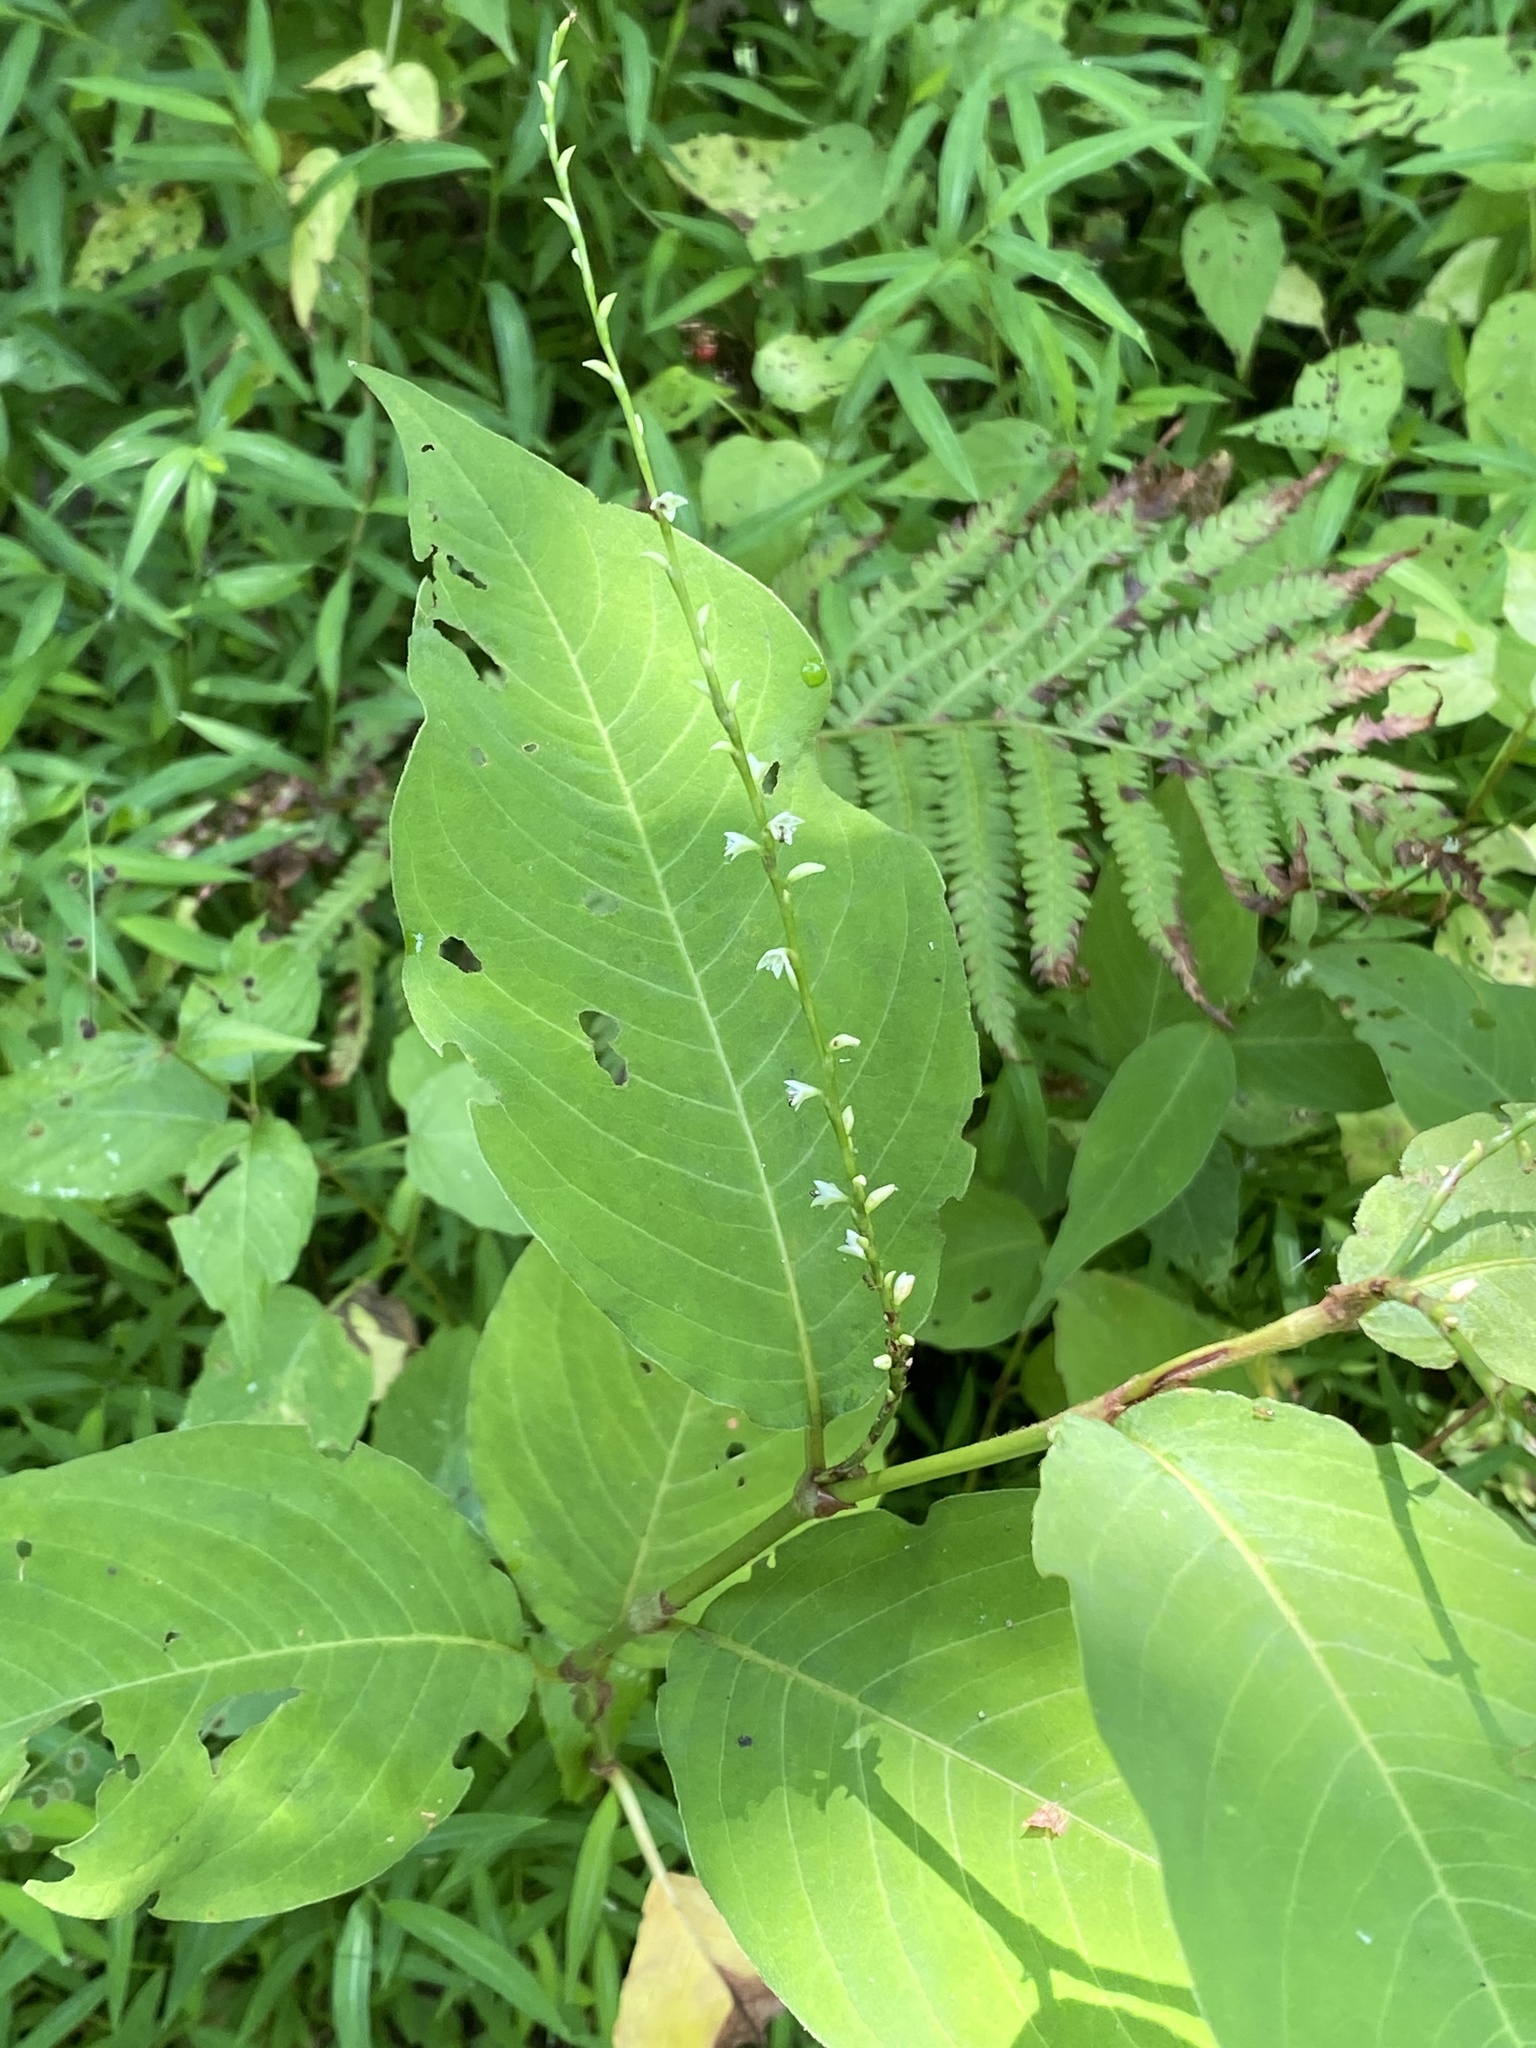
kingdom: Plantae
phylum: Tracheophyta
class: Magnoliopsida
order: Caryophyllales
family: Polygonaceae
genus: Persicaria
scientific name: Persicaria virginiana
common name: Jumpseed
